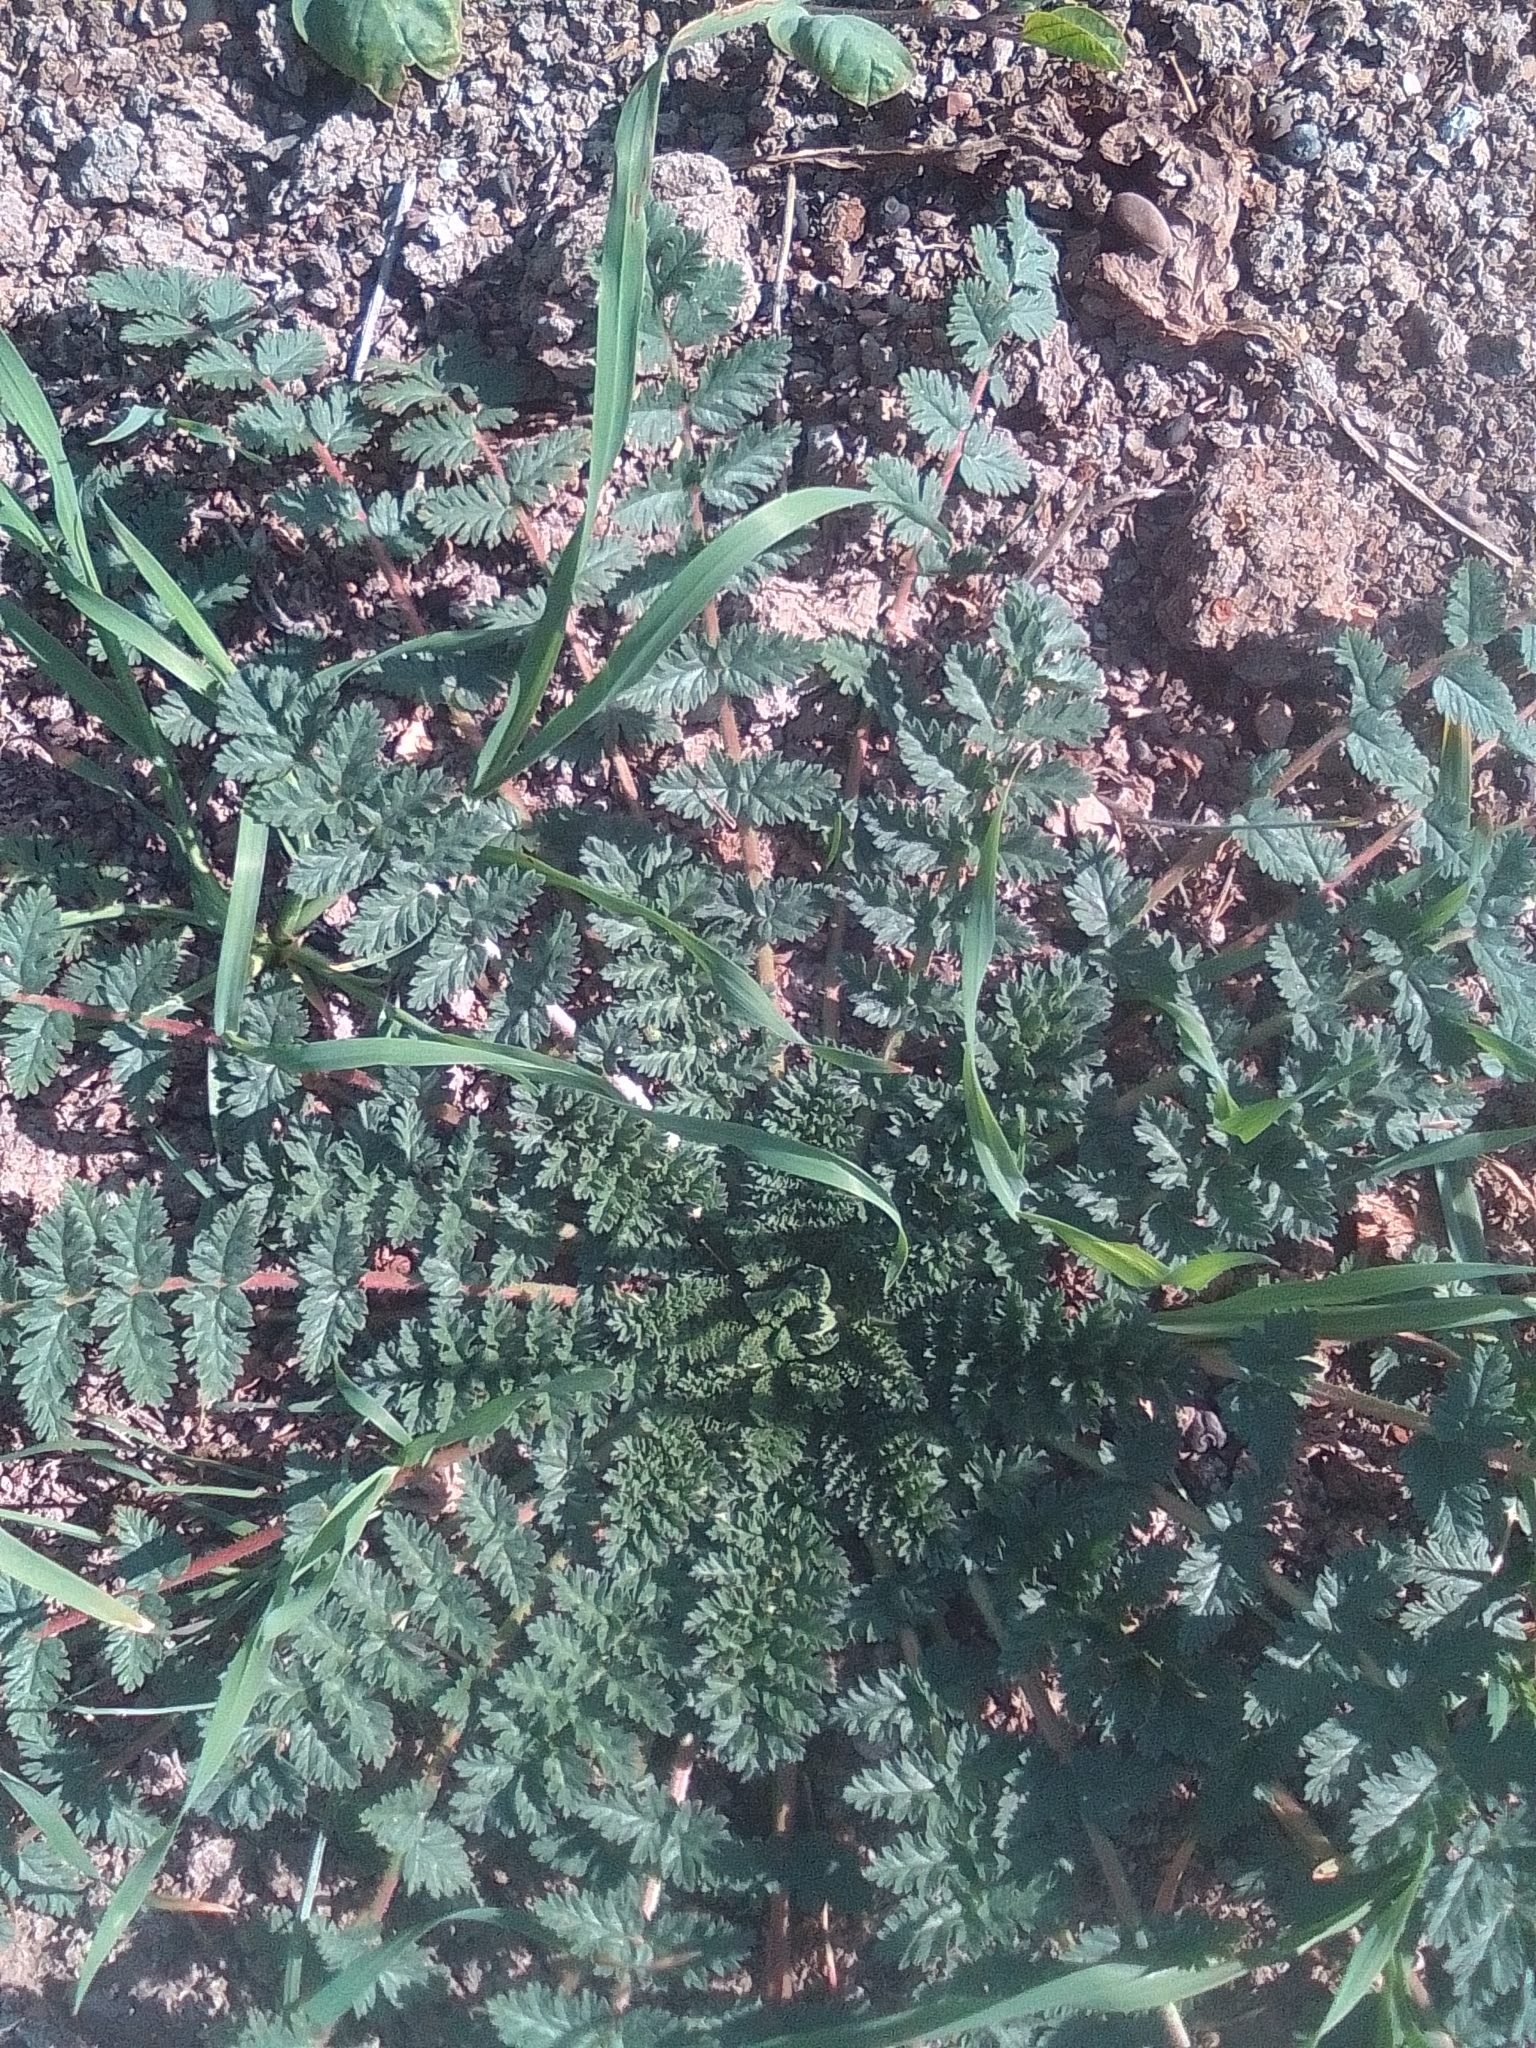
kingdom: Plantae
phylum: Tracheophyta
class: Magnoliopsida
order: Geraniales
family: Geraniaceae
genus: Erodium
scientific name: Erodium cicutarium
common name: Common stork's-bill
